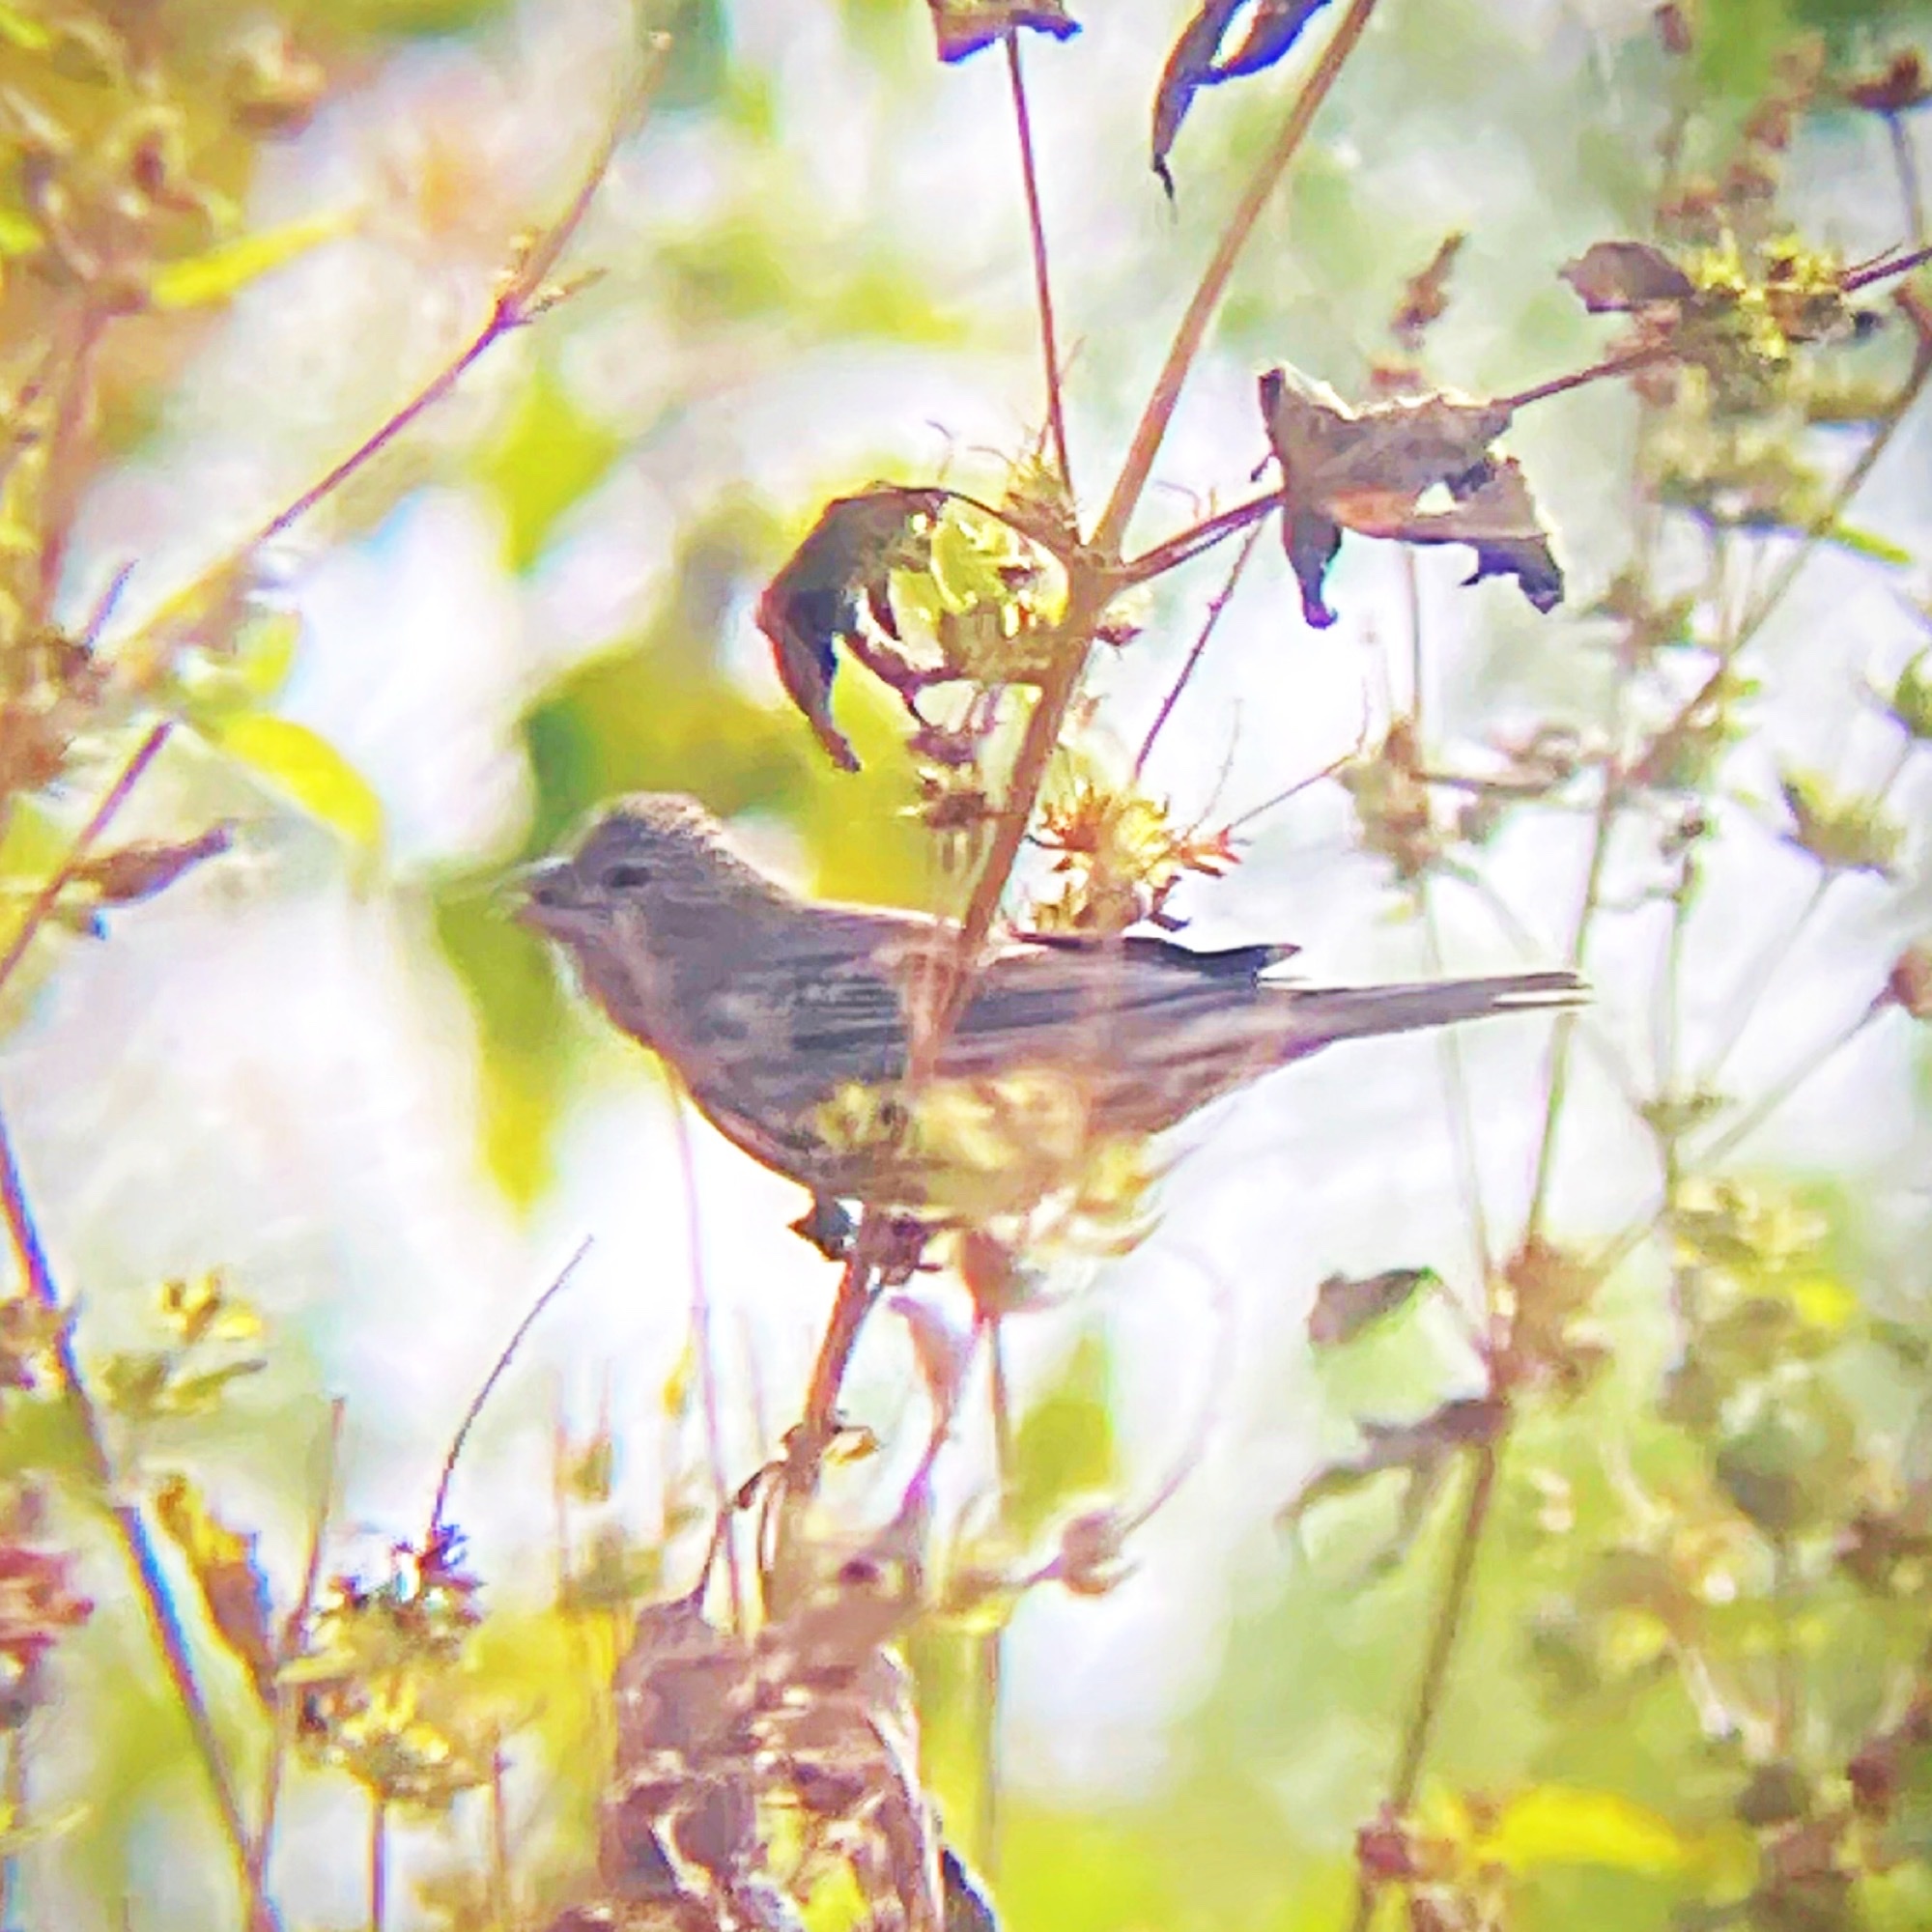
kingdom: Animalia
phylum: Chordata
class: Aves
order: Passeriformes
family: Fringillidae
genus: Haemorhous
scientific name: Haemorhous mexicanus
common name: House finch
